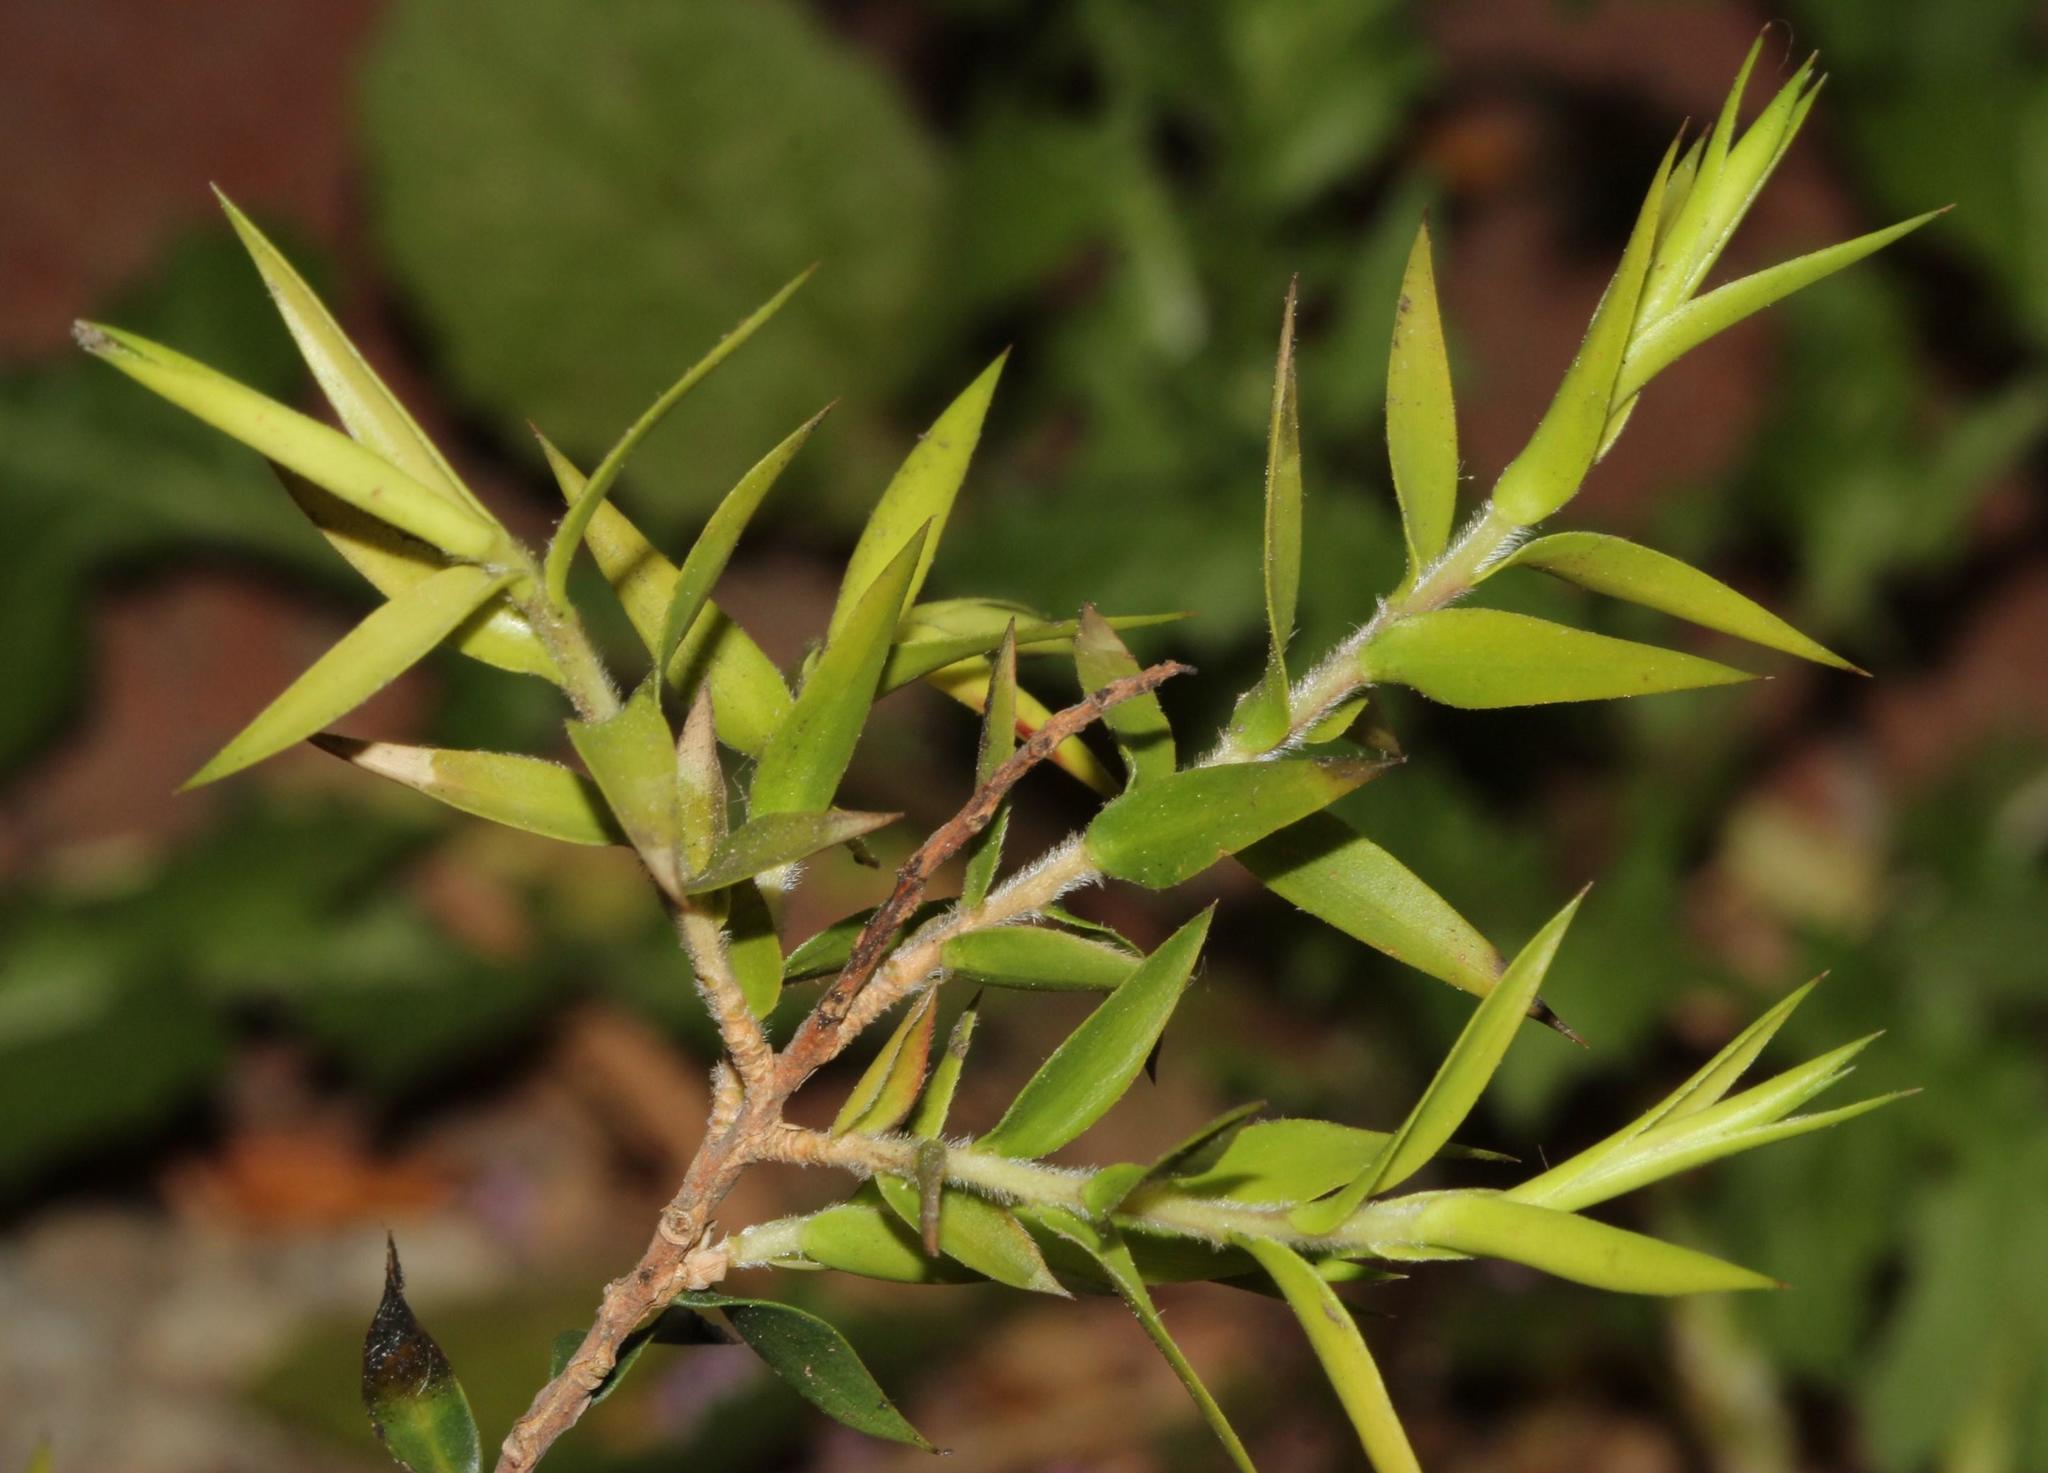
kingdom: Plantae
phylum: Tracheophyta
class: Magnoliopsida
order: Myrtales
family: Myrtaceae
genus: Melaleuca
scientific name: Melaleuca styphelioides
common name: Prickly paperbark
